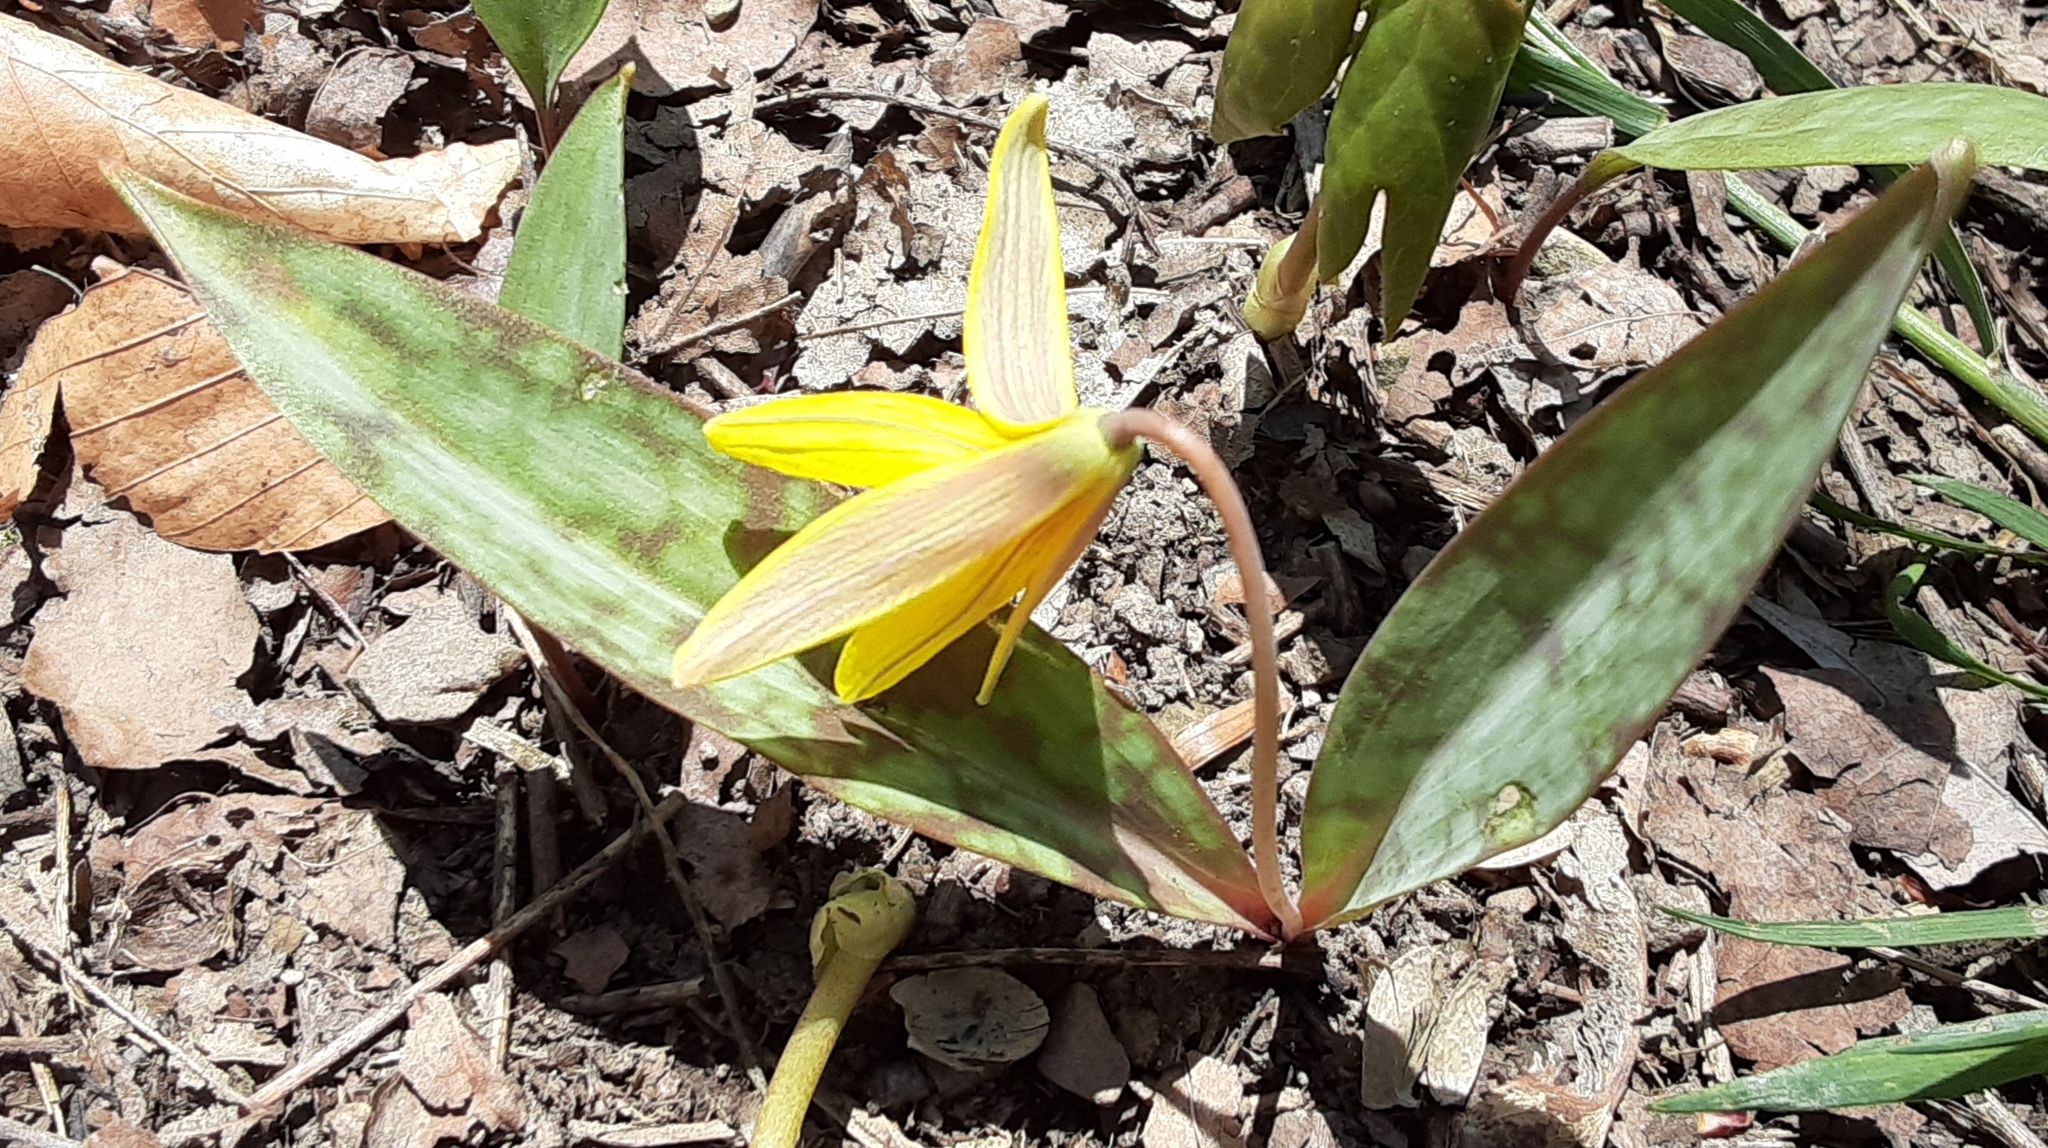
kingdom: Plantae
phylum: Tracheophyta
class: Liliopsida
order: Liliales
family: Liliaceae
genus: Erythronium
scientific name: Erythronium americanum
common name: Yellow adder's-tongue
